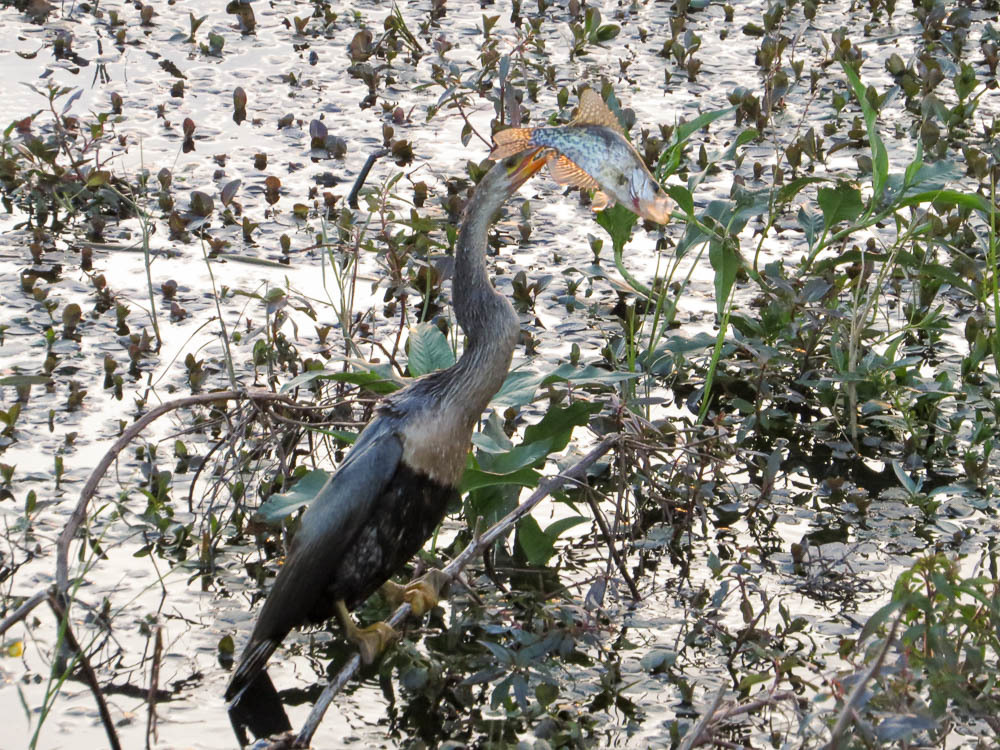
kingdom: Animalia
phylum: Chordata
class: Aves
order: Suliformes
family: Anhingidae
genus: Anhinga
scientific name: Anhinga anhinga
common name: Anhinga
